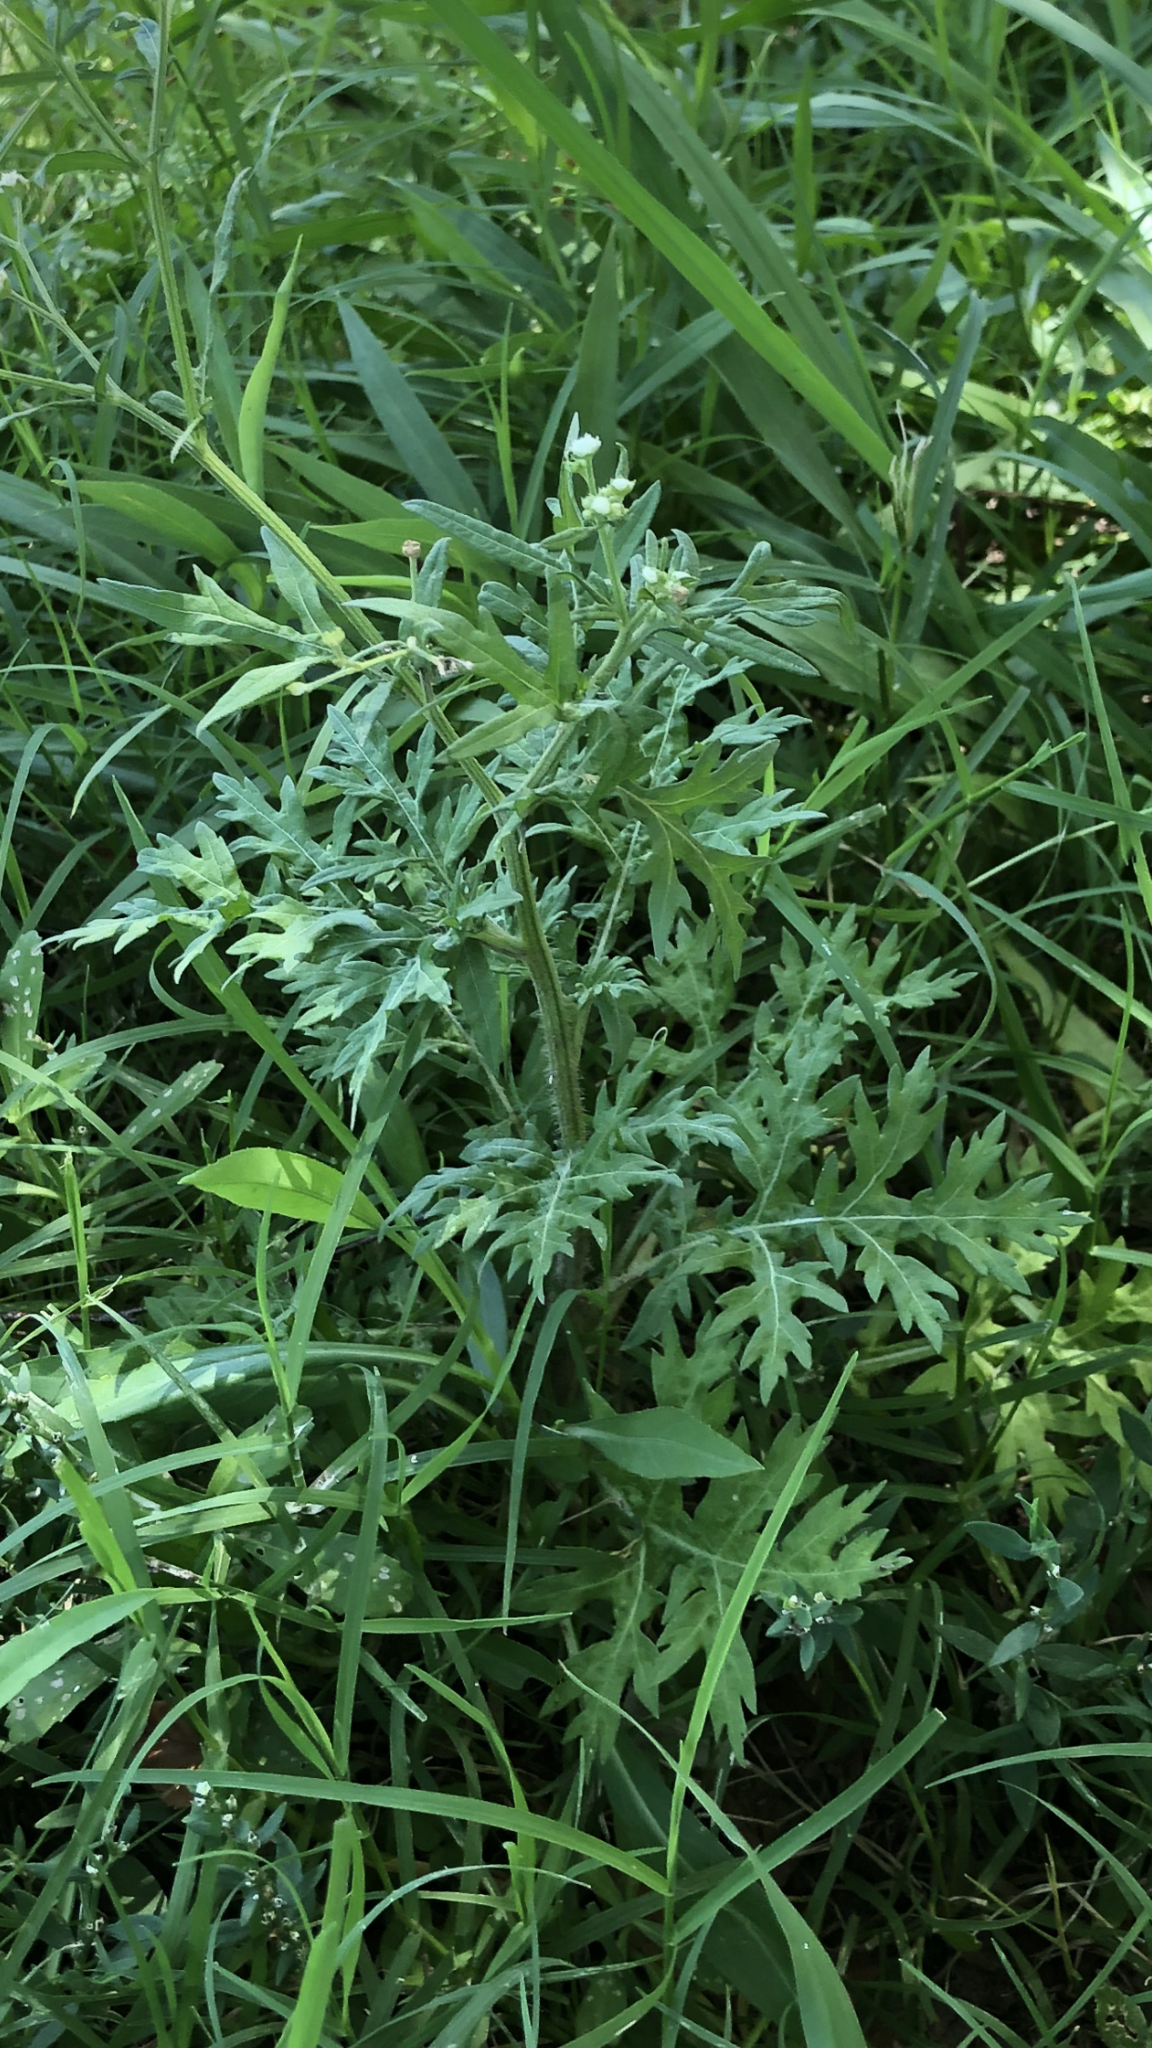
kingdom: Plantae
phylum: Tracheophyta
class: Magnoliopsida
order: Asterales
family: Asteraceae
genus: Parthenium
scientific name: Parthenium hysterophorus
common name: Santa maria feverfew
